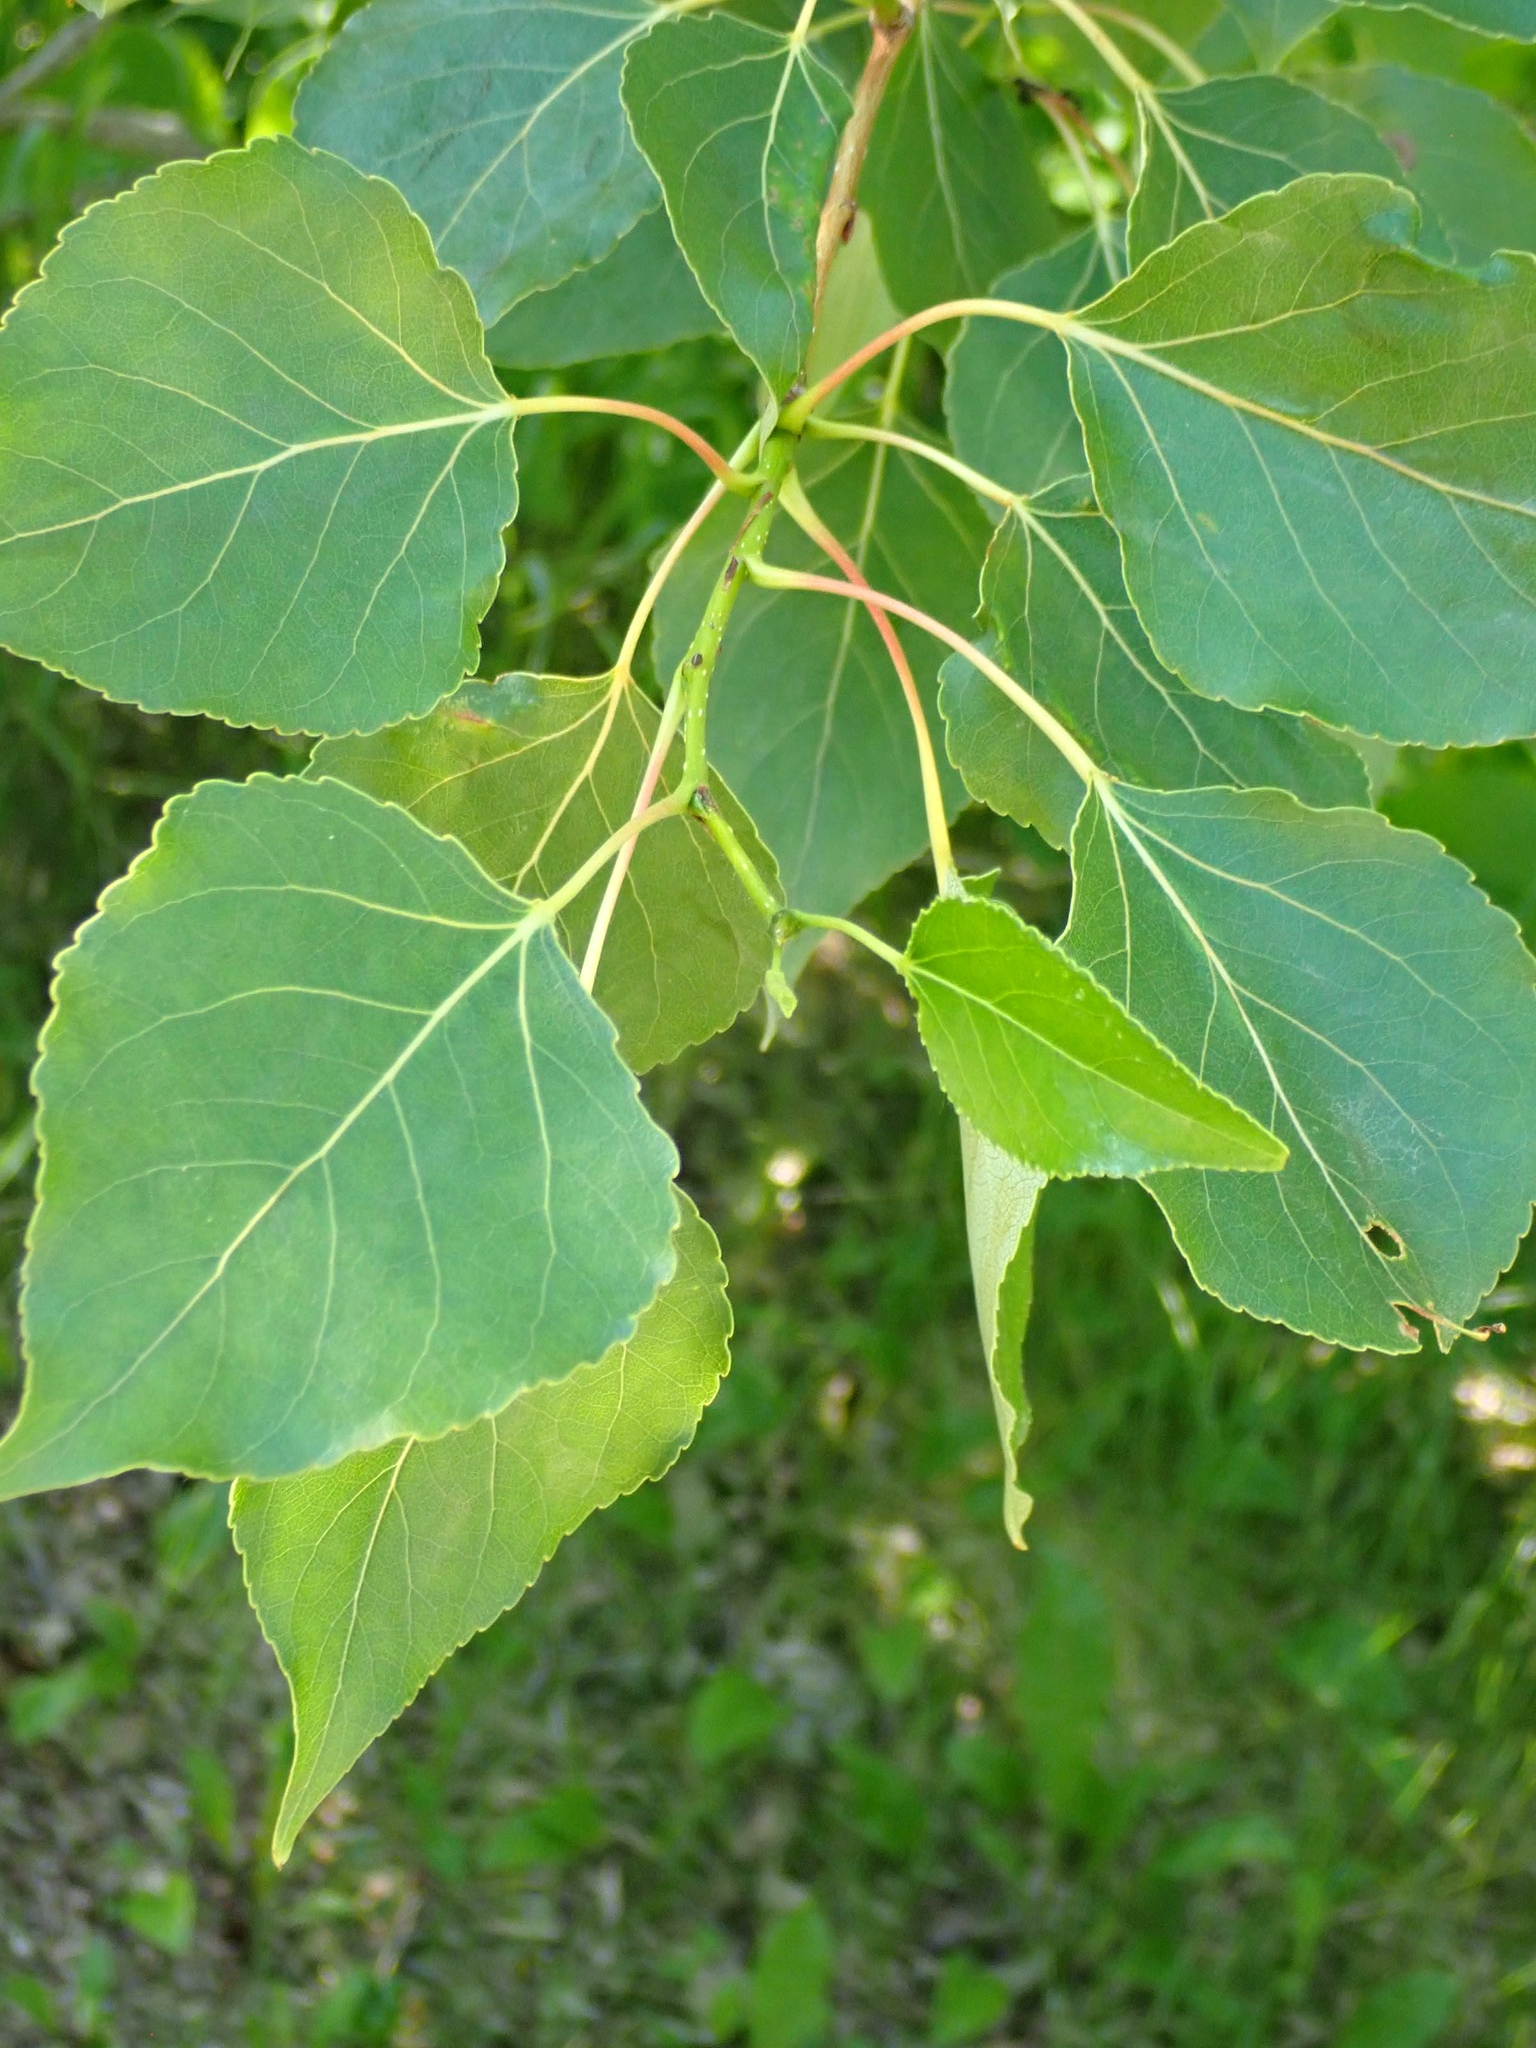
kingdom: Plantae
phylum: Tracheophyta
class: Magnoliopsida
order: Malpighiales
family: Salicaceae
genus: Populus
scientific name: Populus balsamifera
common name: Balsam poplar
